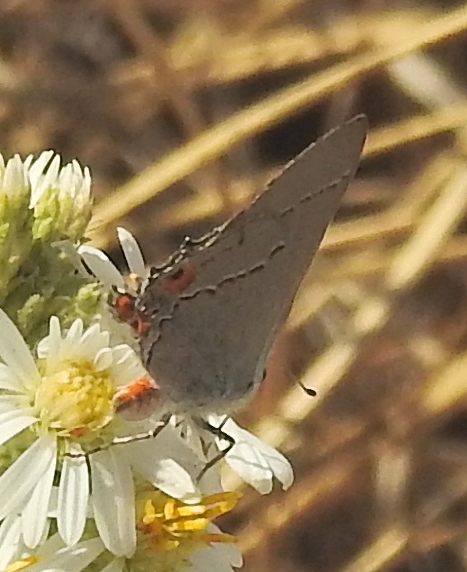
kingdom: Animalia
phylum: Arthropoda
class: Insecta
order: Lepidoptera
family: Lycaenidae
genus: Strymon
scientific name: Strymon melinus
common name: Gray hairstreak
